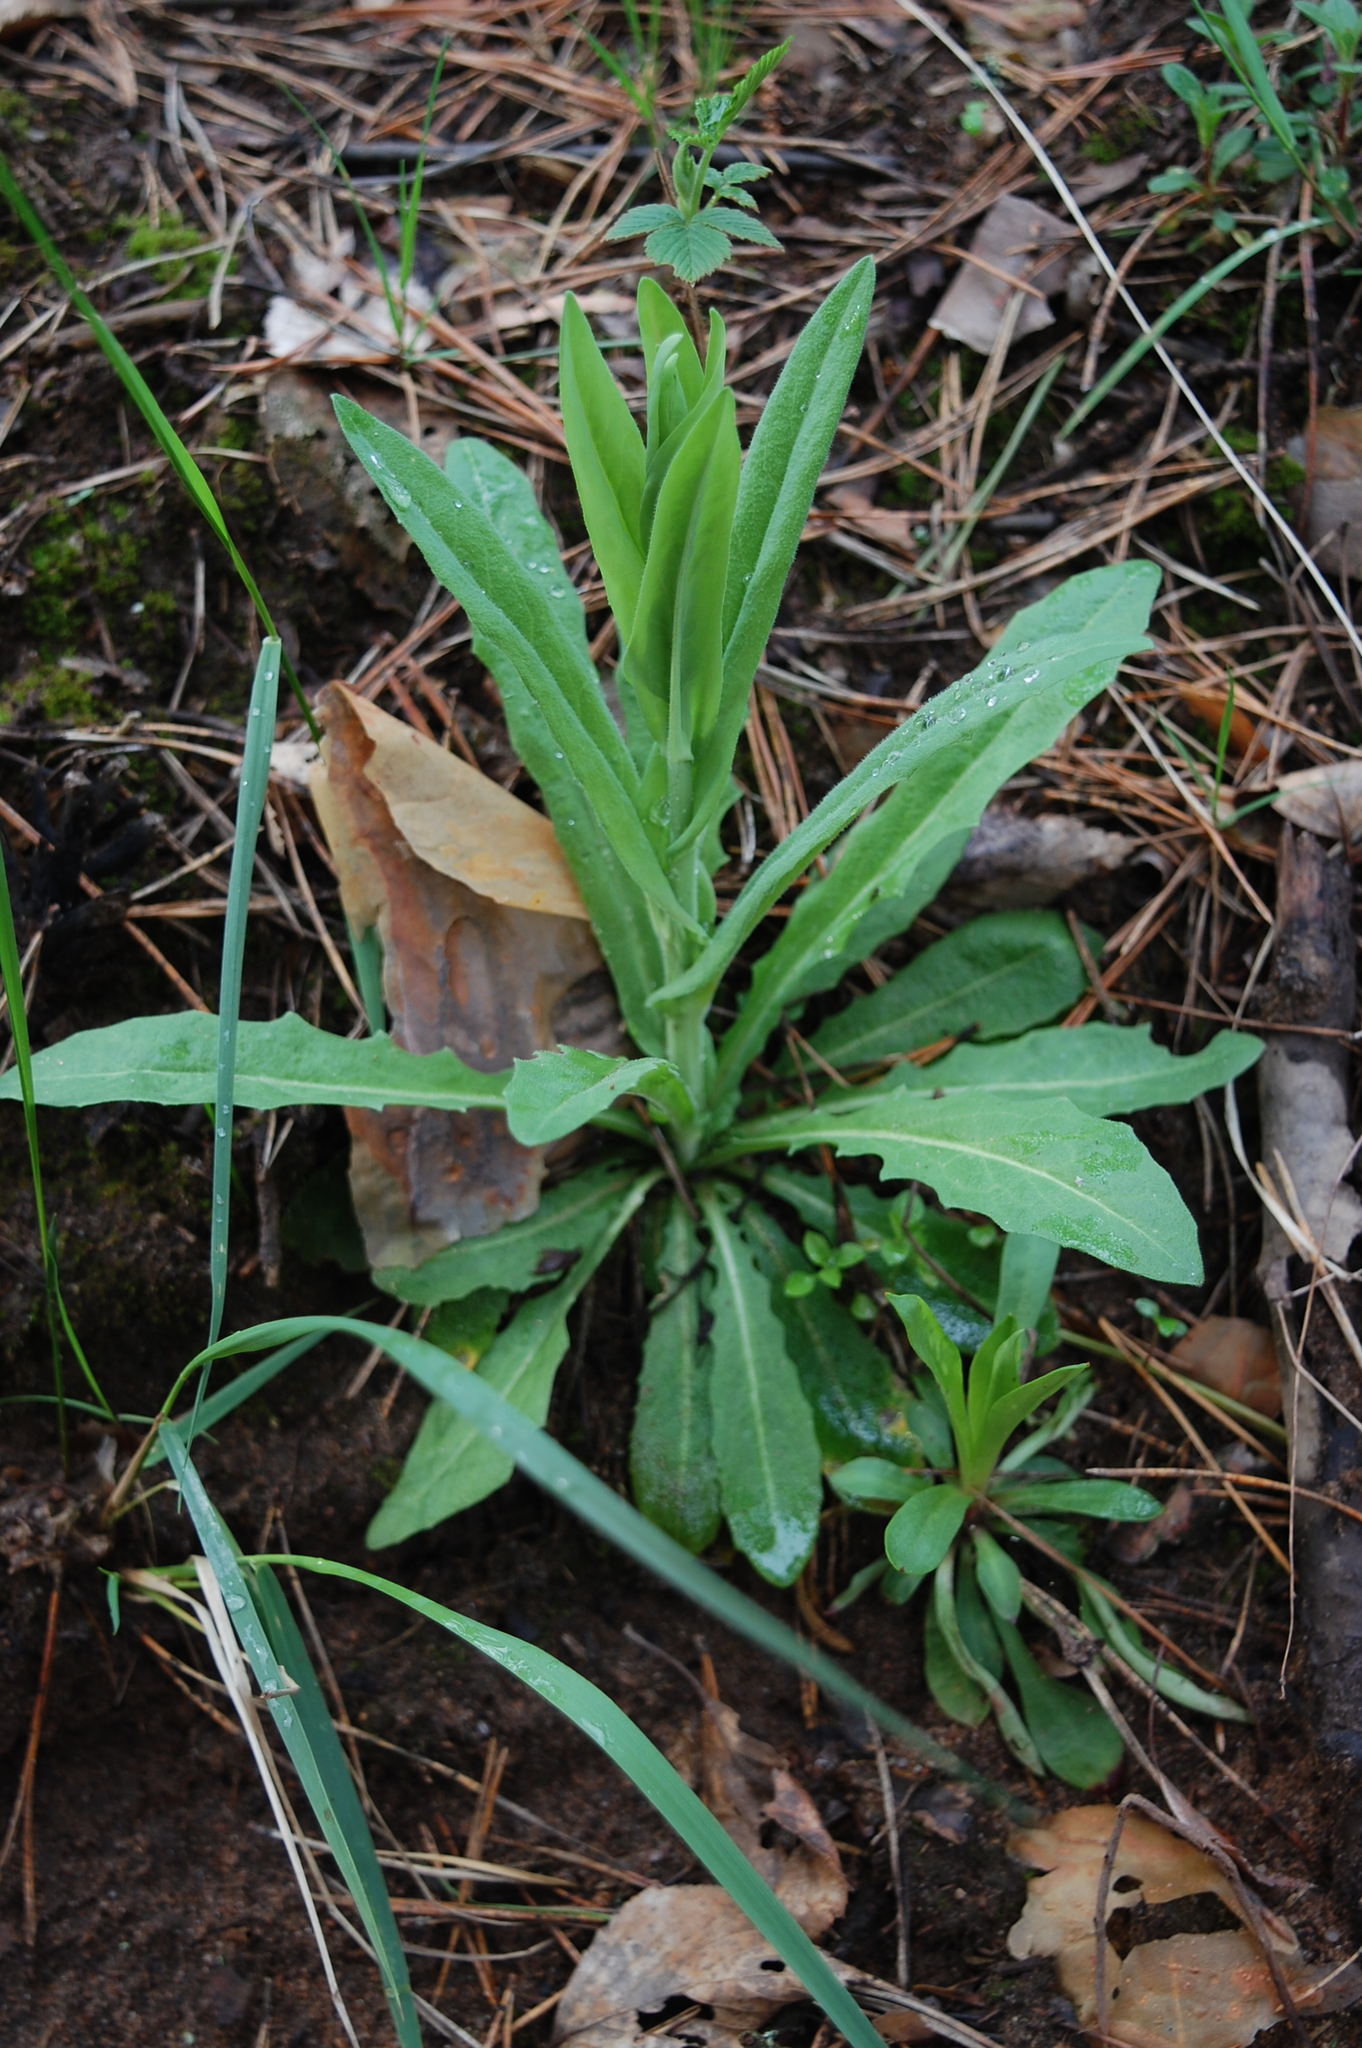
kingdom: Plantae
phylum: Tracheophyta
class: Magnoliopsida
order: Brassicales
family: Brassicaceae
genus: Turritis
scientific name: Turritis glabra
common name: Tower rockcress
